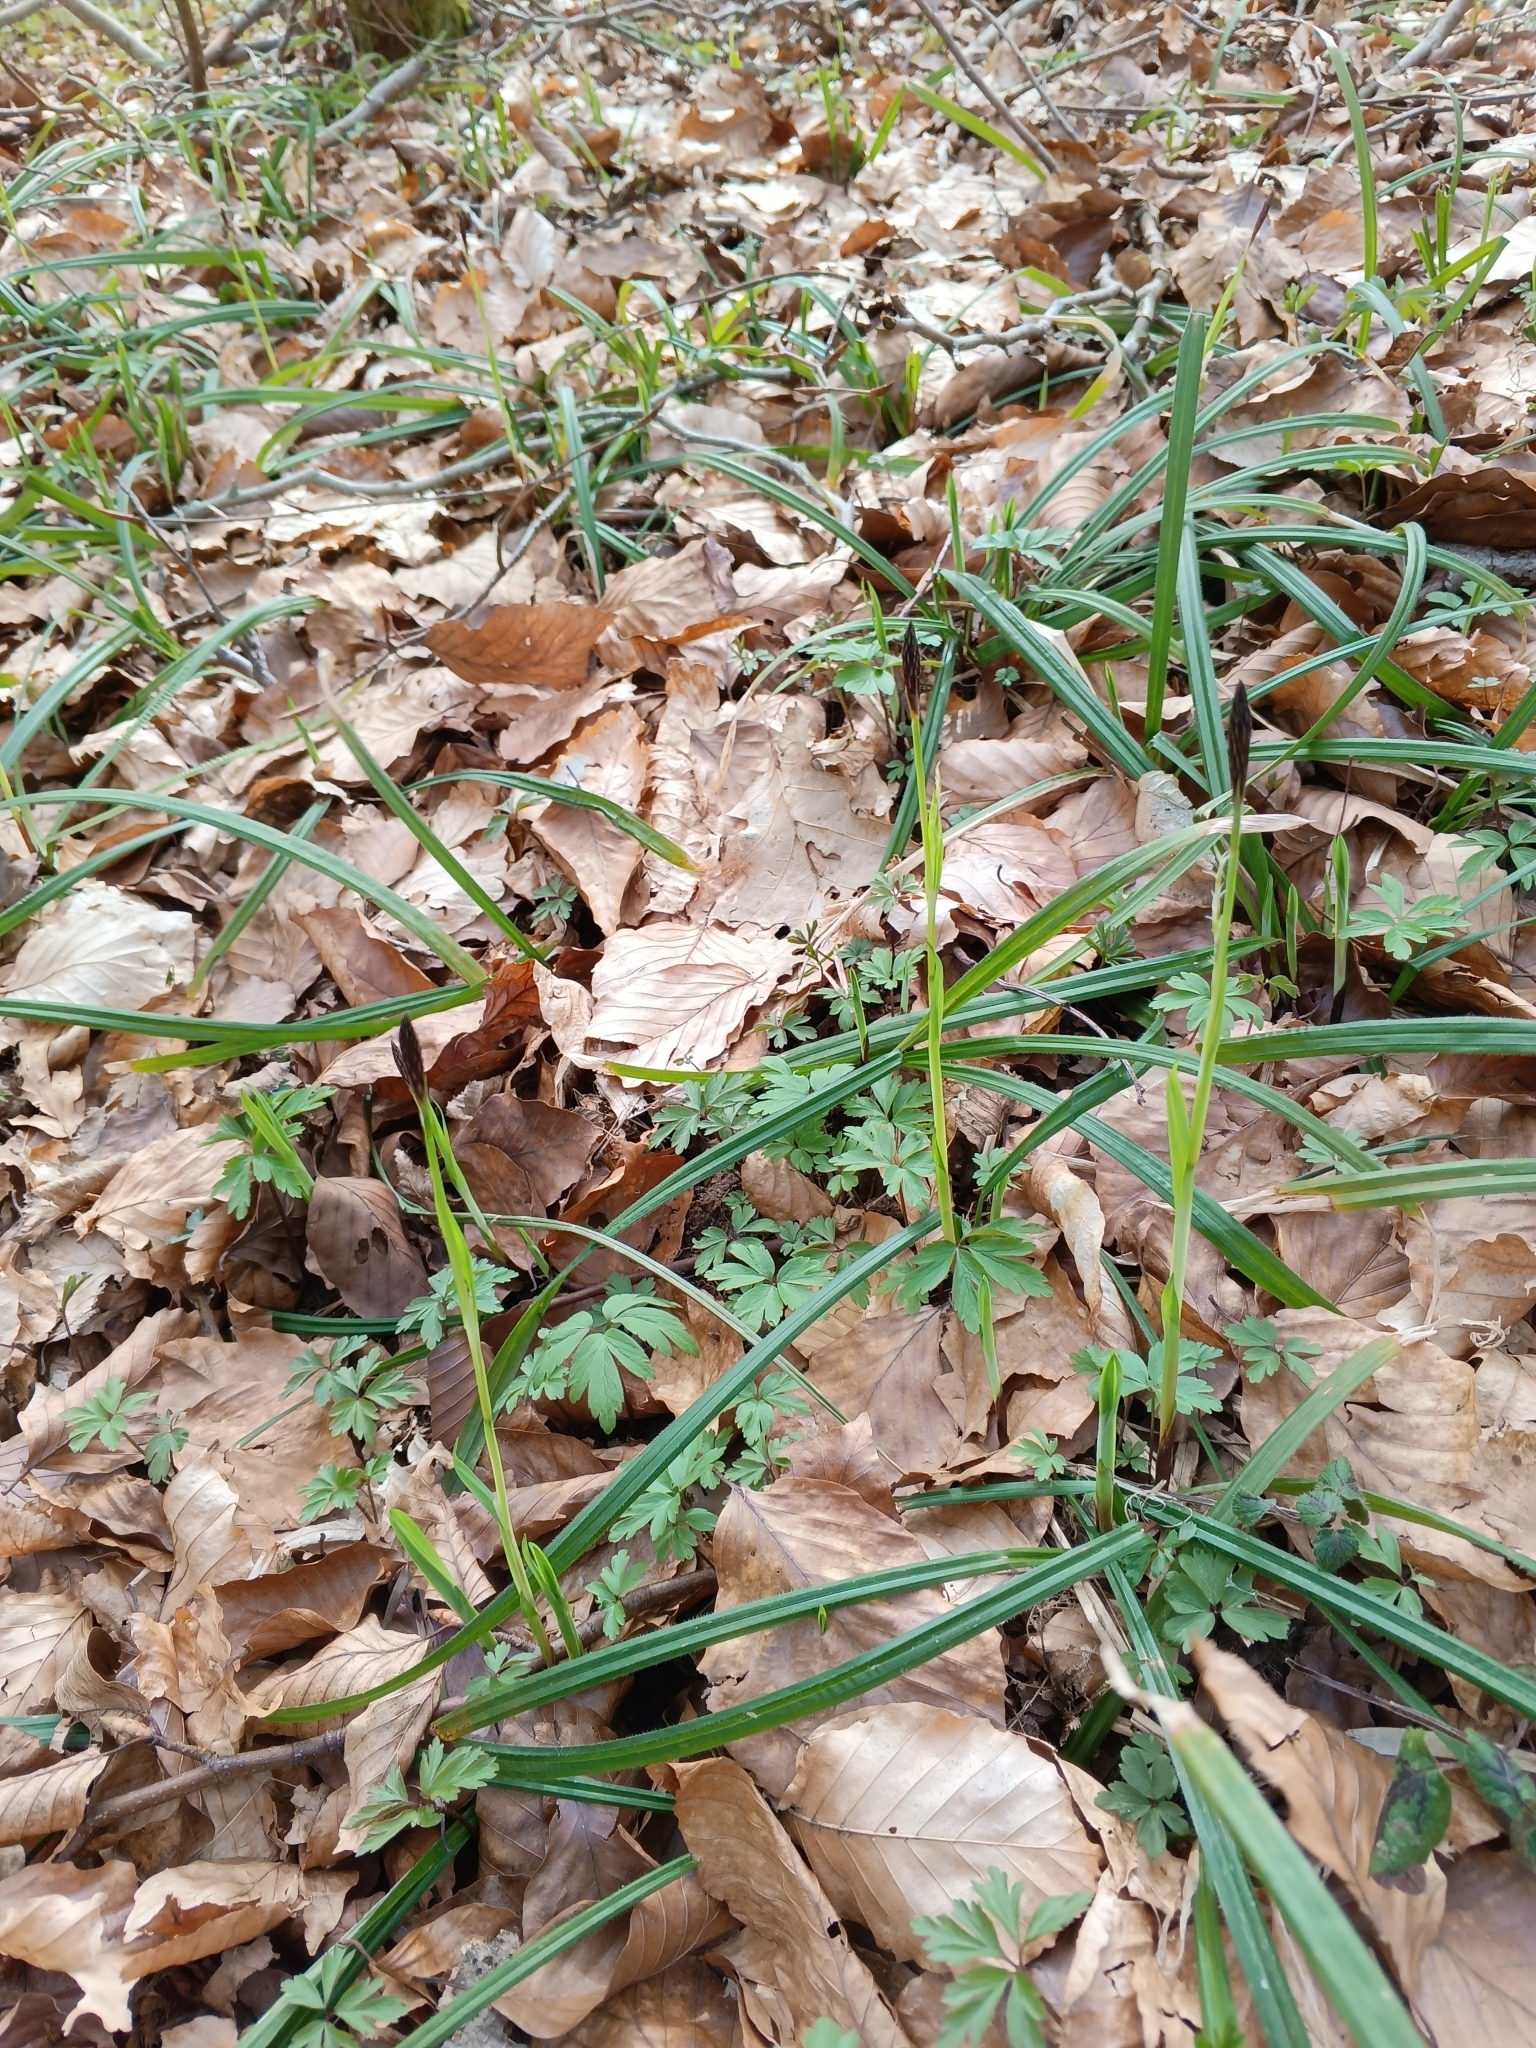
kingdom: Plantae
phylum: Tracheophyta
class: Liliopsida
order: Poales
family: Cyperaceae
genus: Carex
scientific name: Carex pilosa
